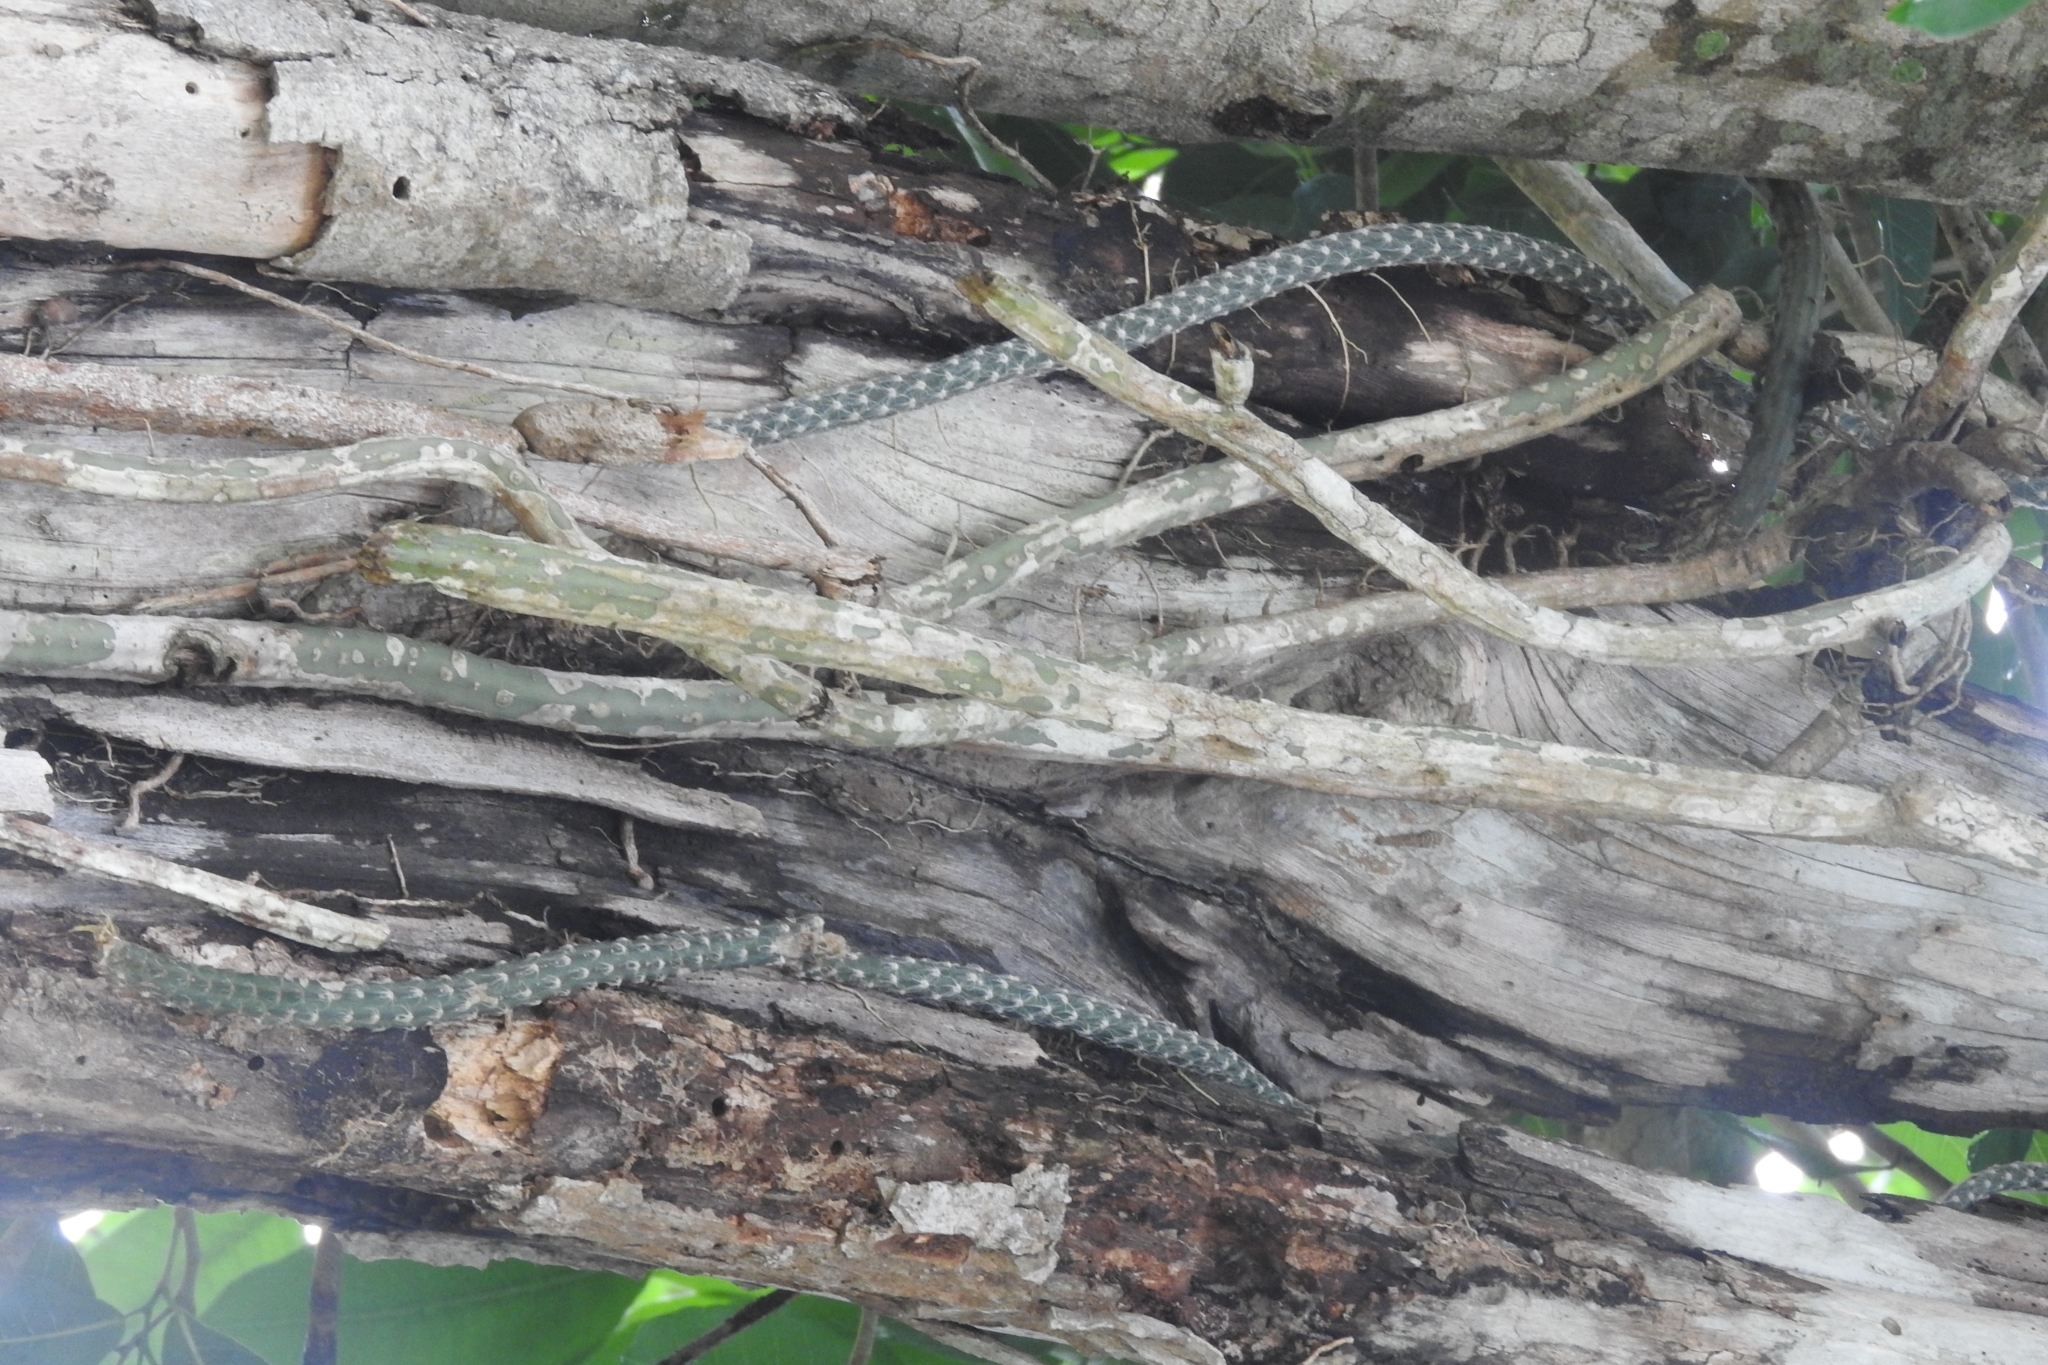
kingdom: Plantae
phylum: Tracheophyta
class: Magnoliopsida
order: Caryophyllales
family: Cactaceae
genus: Selenicereus
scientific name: Selenicereus grandiflorus
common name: Queen of the night
